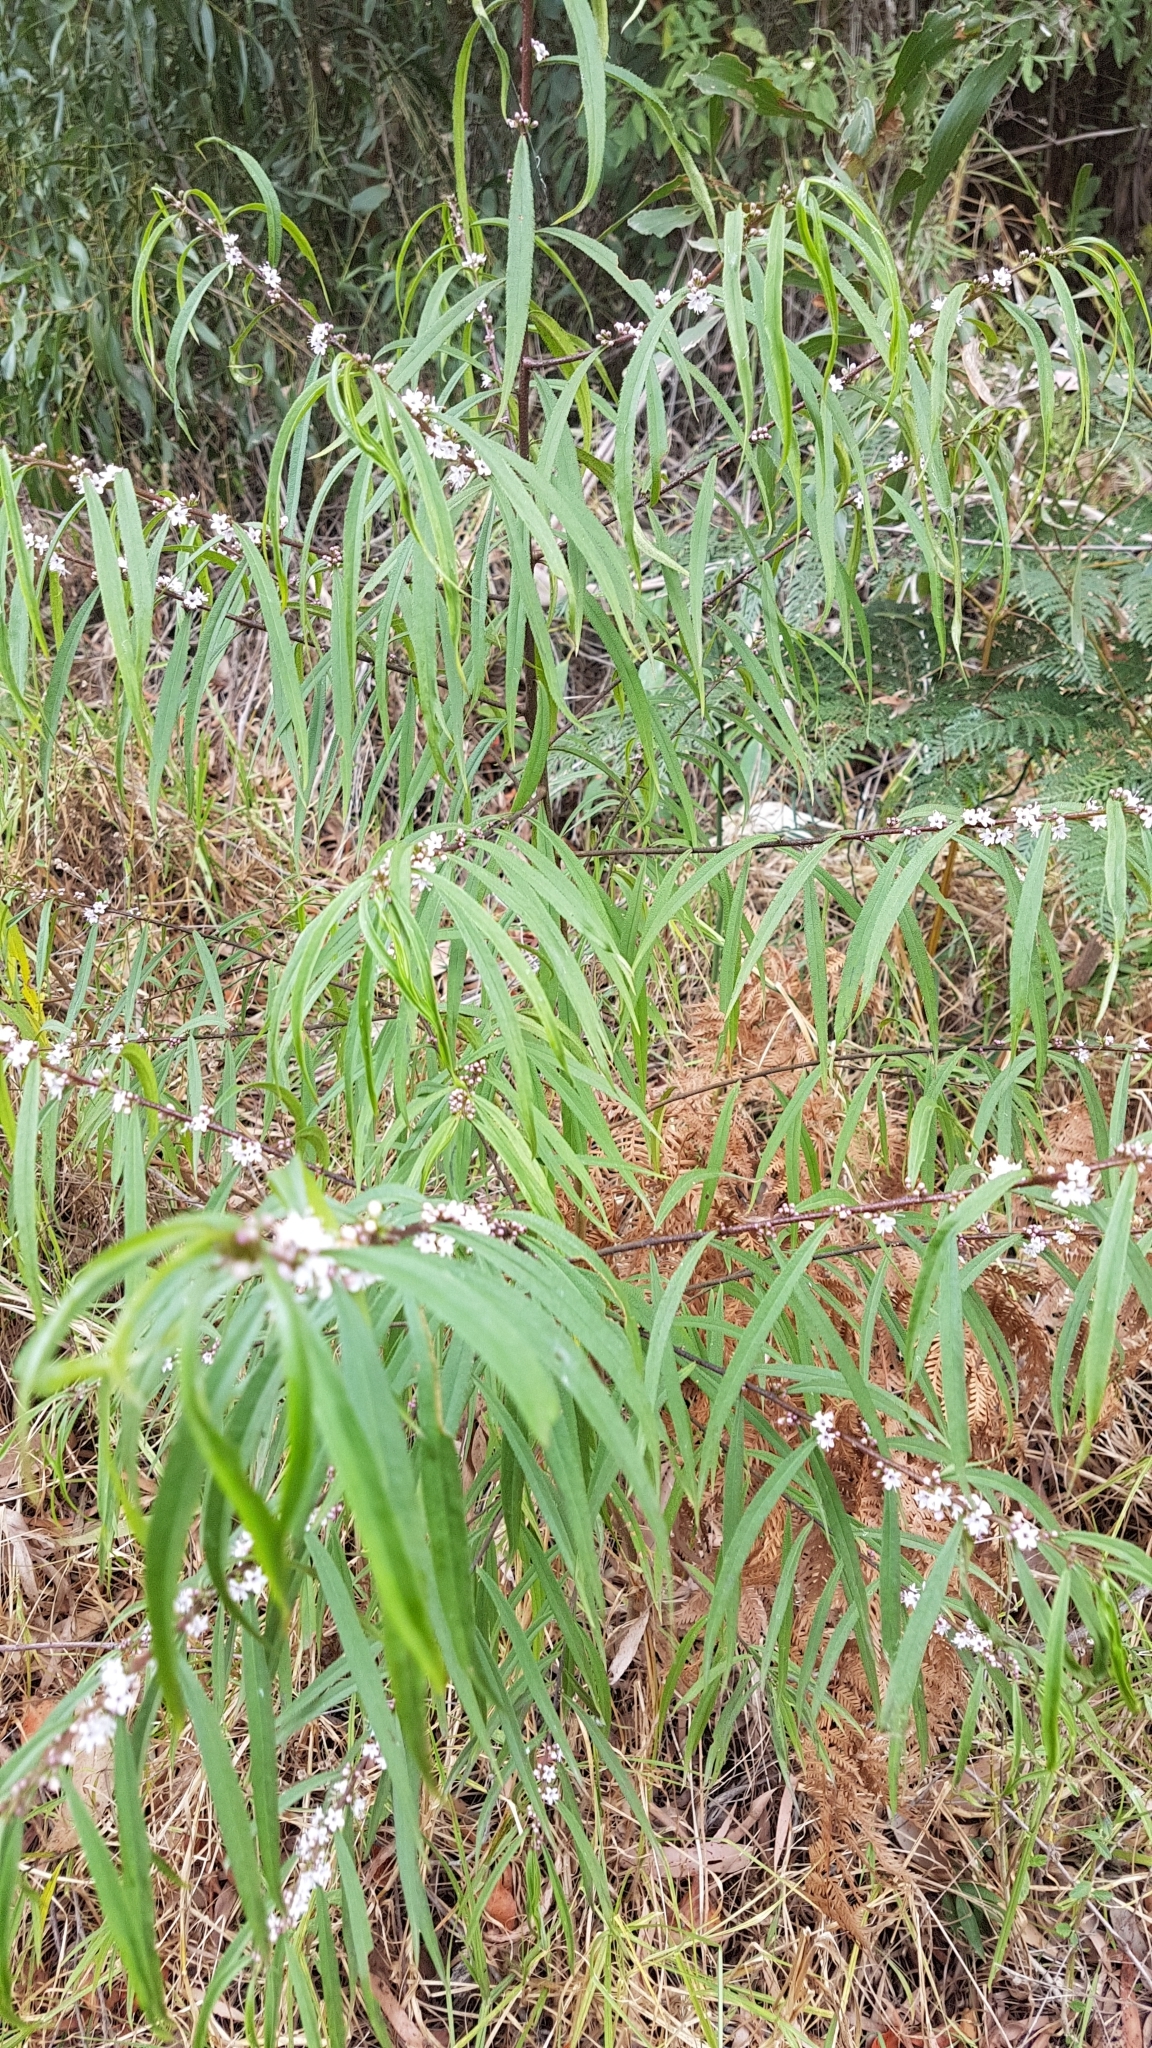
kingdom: Plantae
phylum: Tracheophyta
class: Magnoliopsida
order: Lamiales
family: Scrophulariaceae
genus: Myoporum
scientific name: Myoporum bateae
